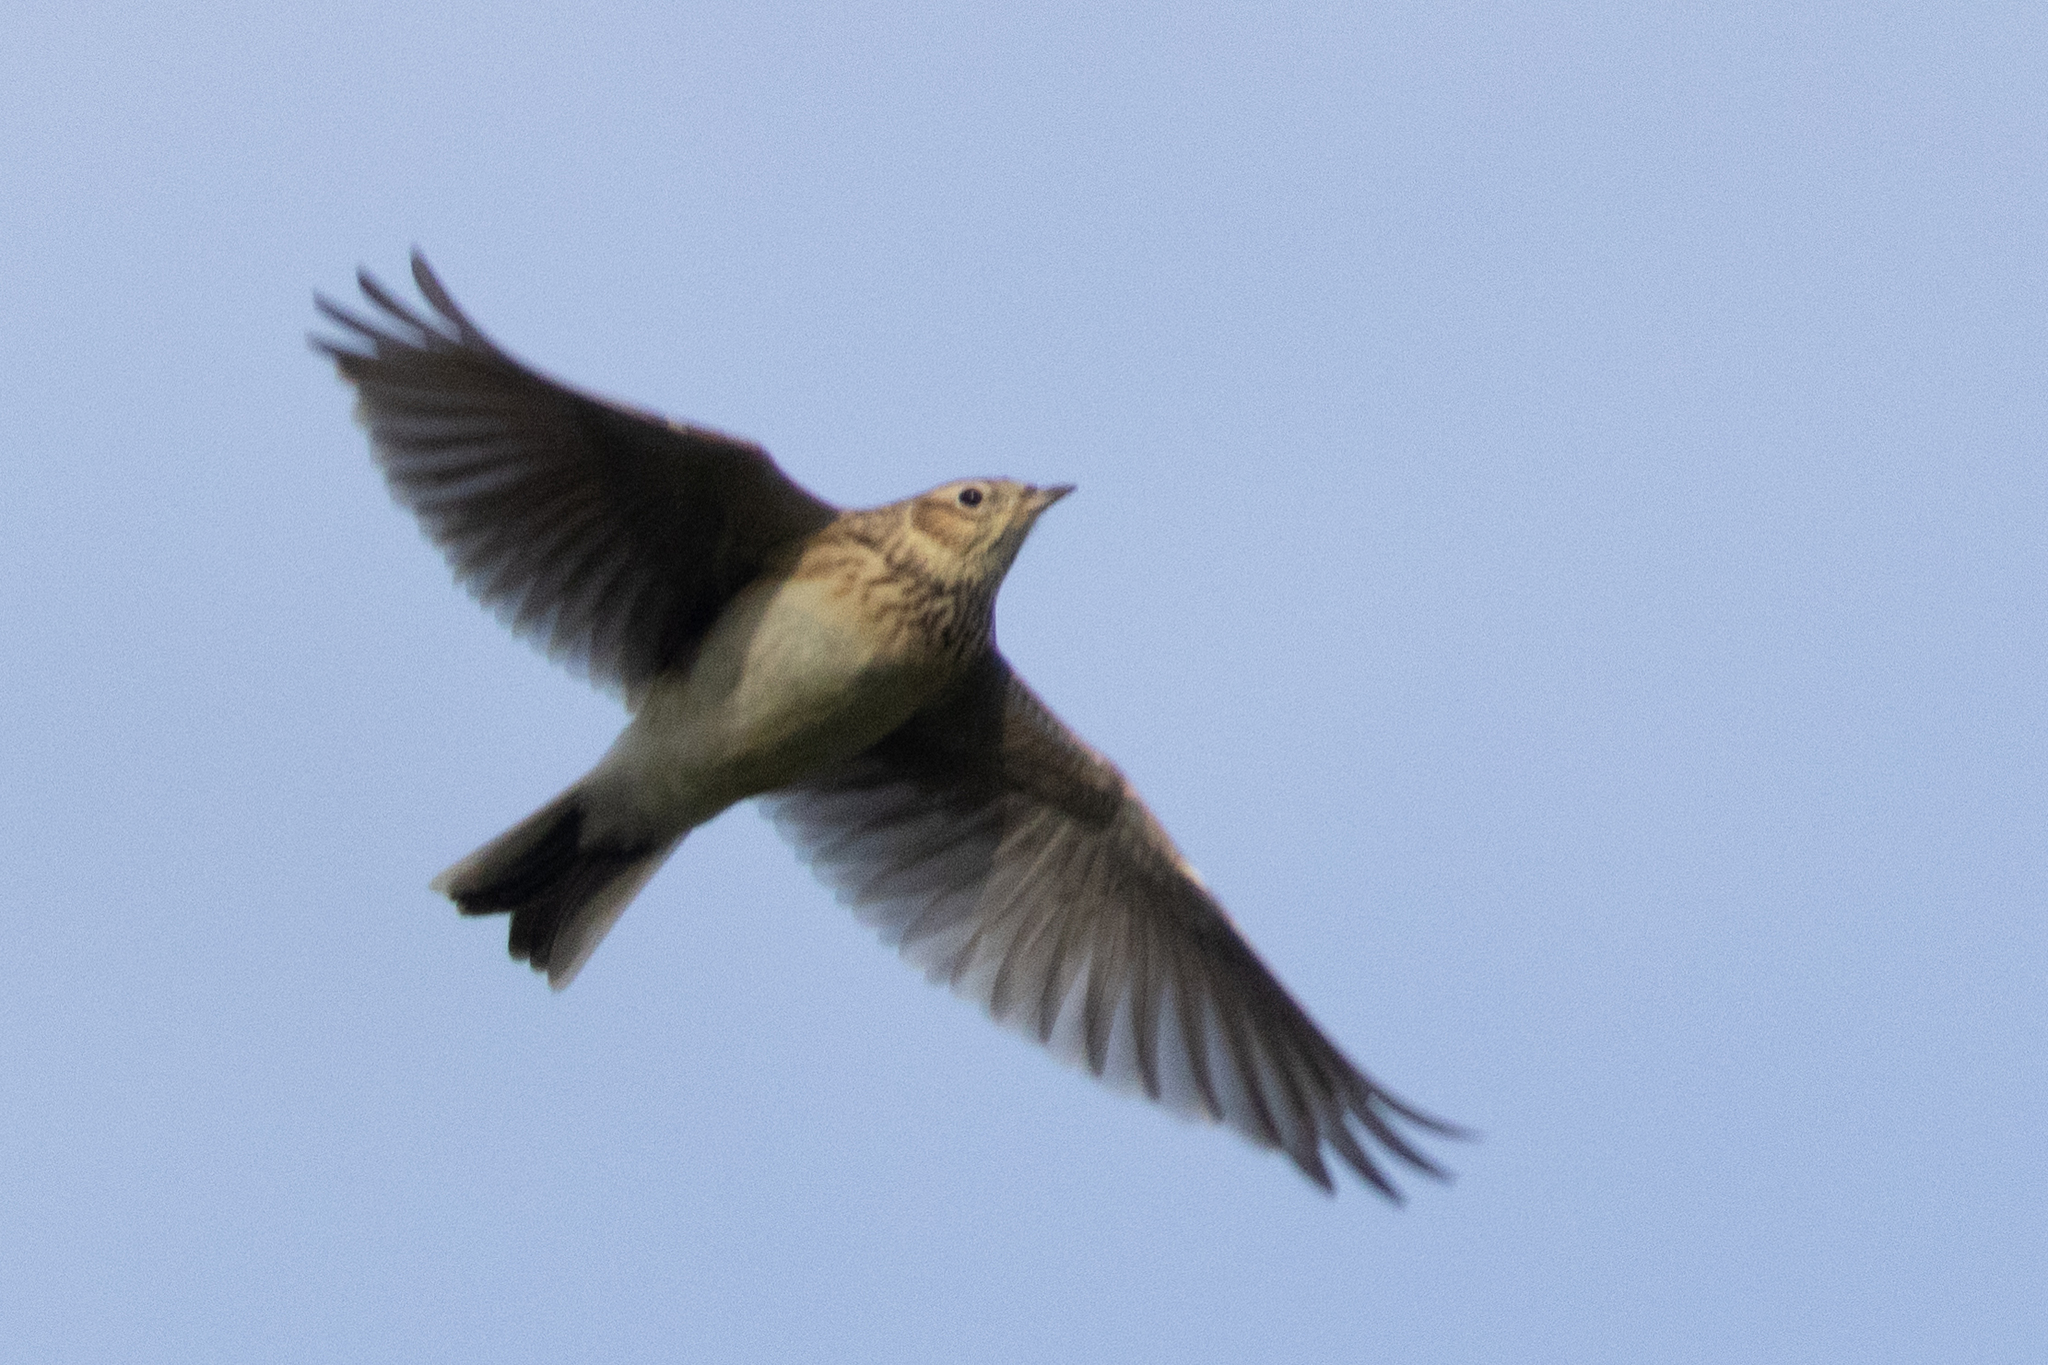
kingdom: Animalia
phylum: Chordata
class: Aves
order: Passeriformes
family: Alaudidae
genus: Alauda
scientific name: Alauda arvensis
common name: Eurasian skylark
